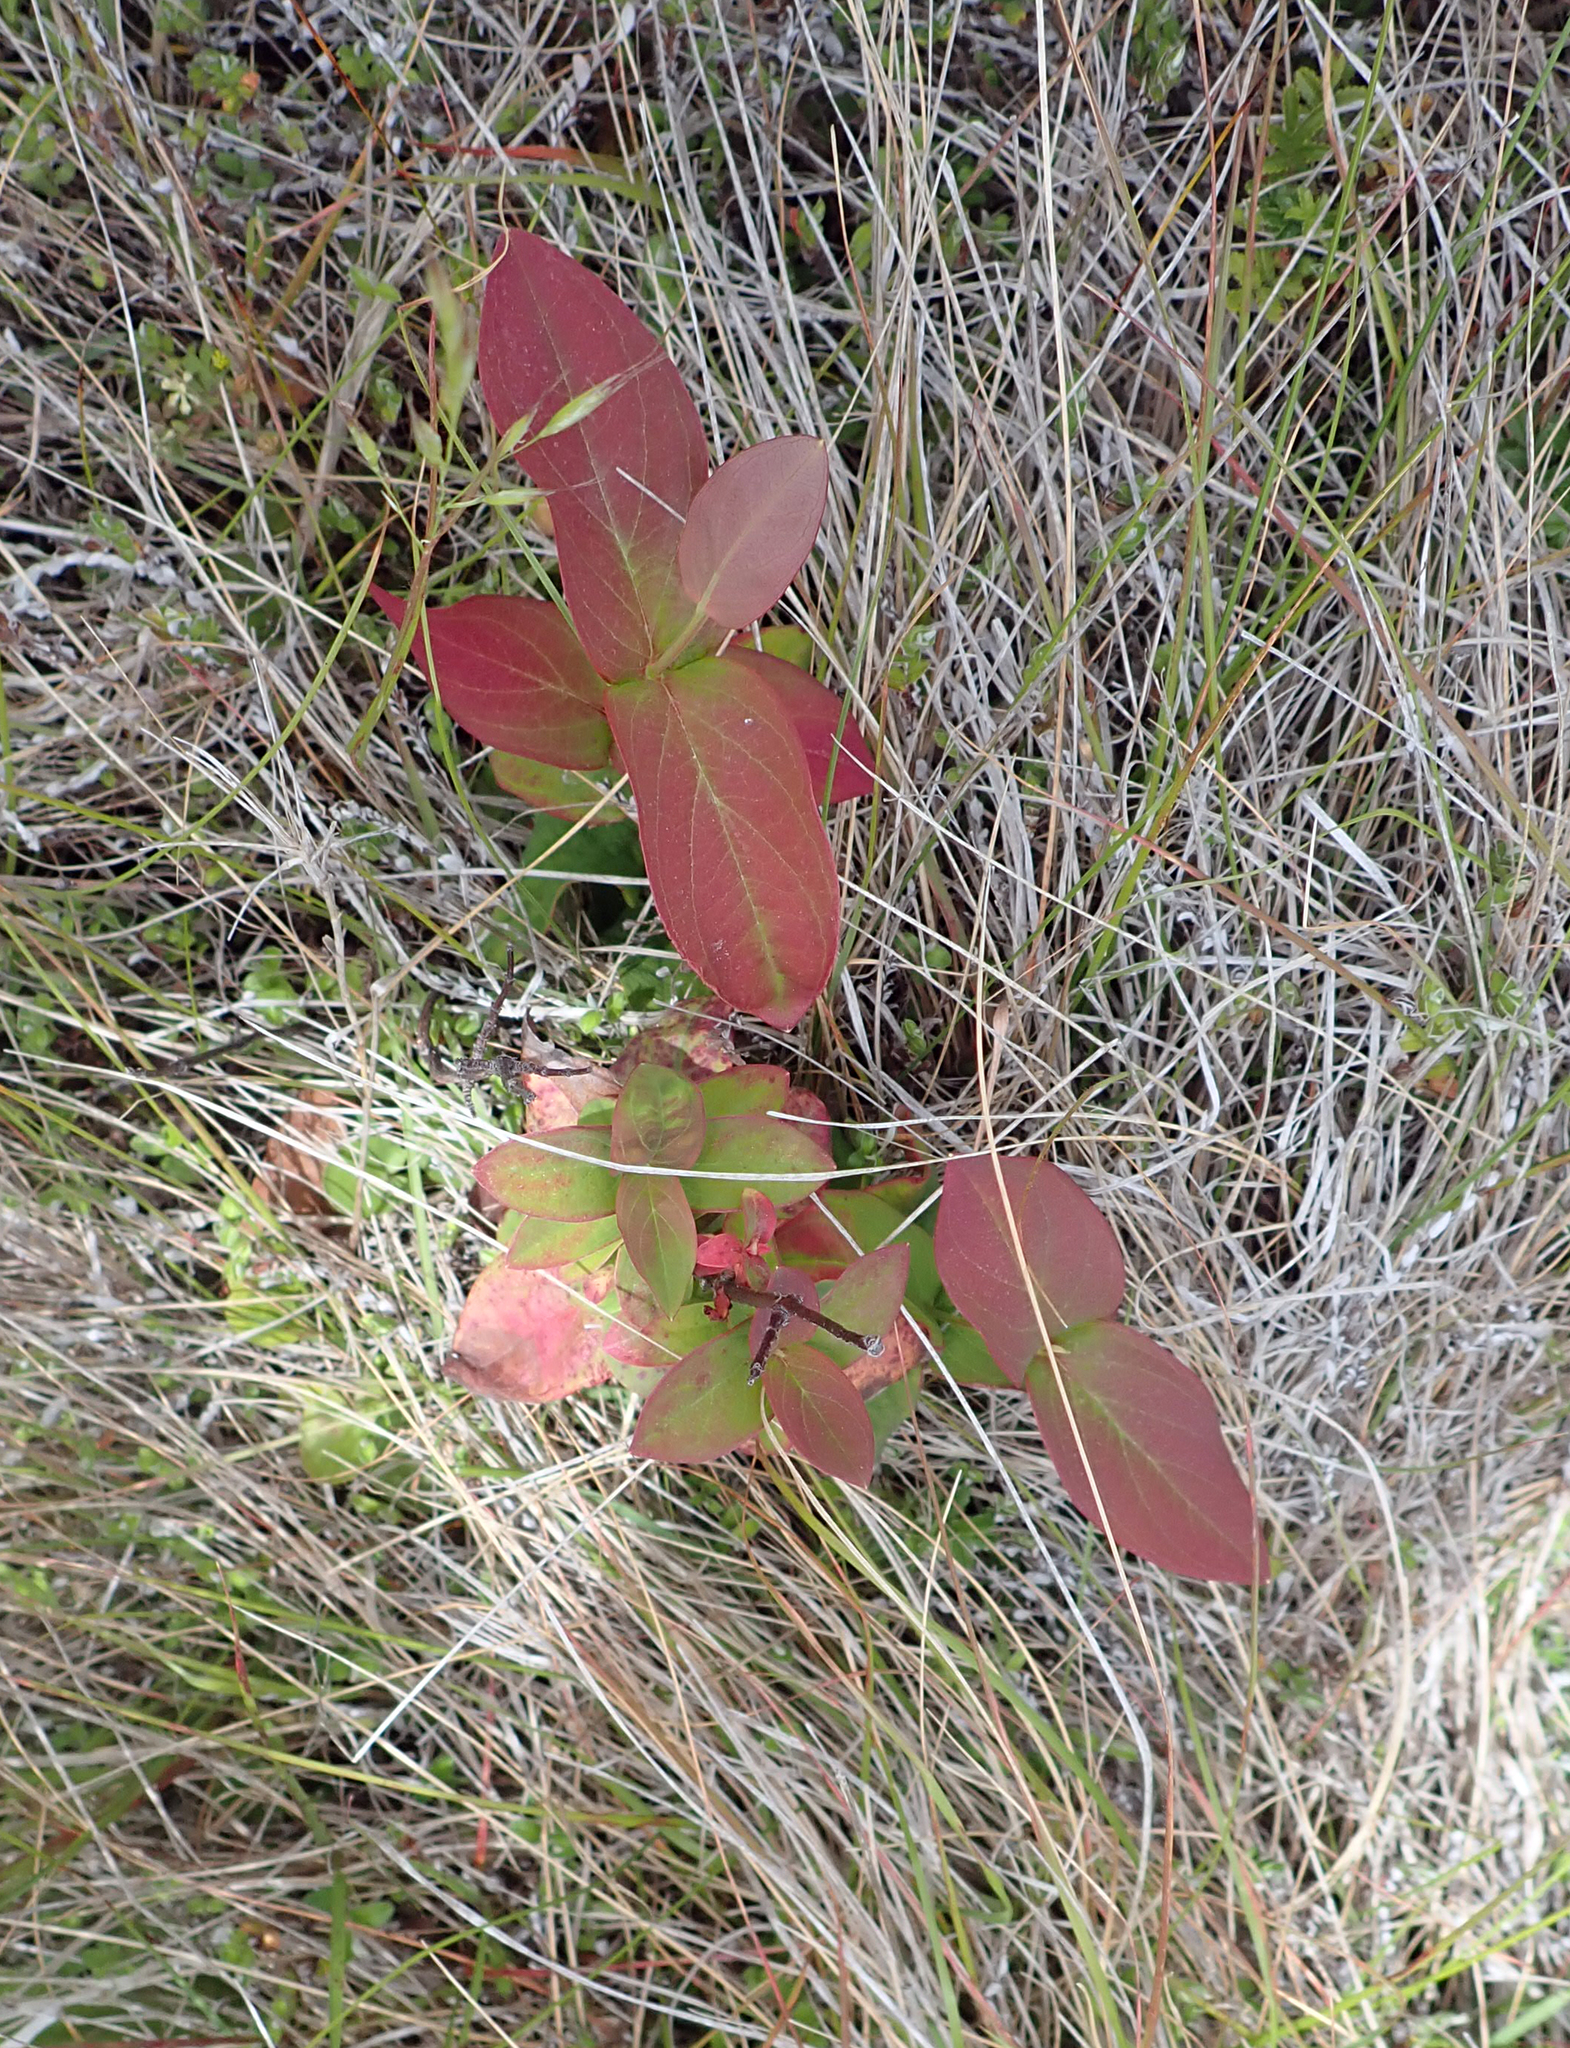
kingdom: Plantae
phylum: Tracheophyta
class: Magnoliopsida
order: Malpighiales
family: Hypericaceae
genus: Hypericum
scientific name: Hypericum androsaemum
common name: Sweet-amber
